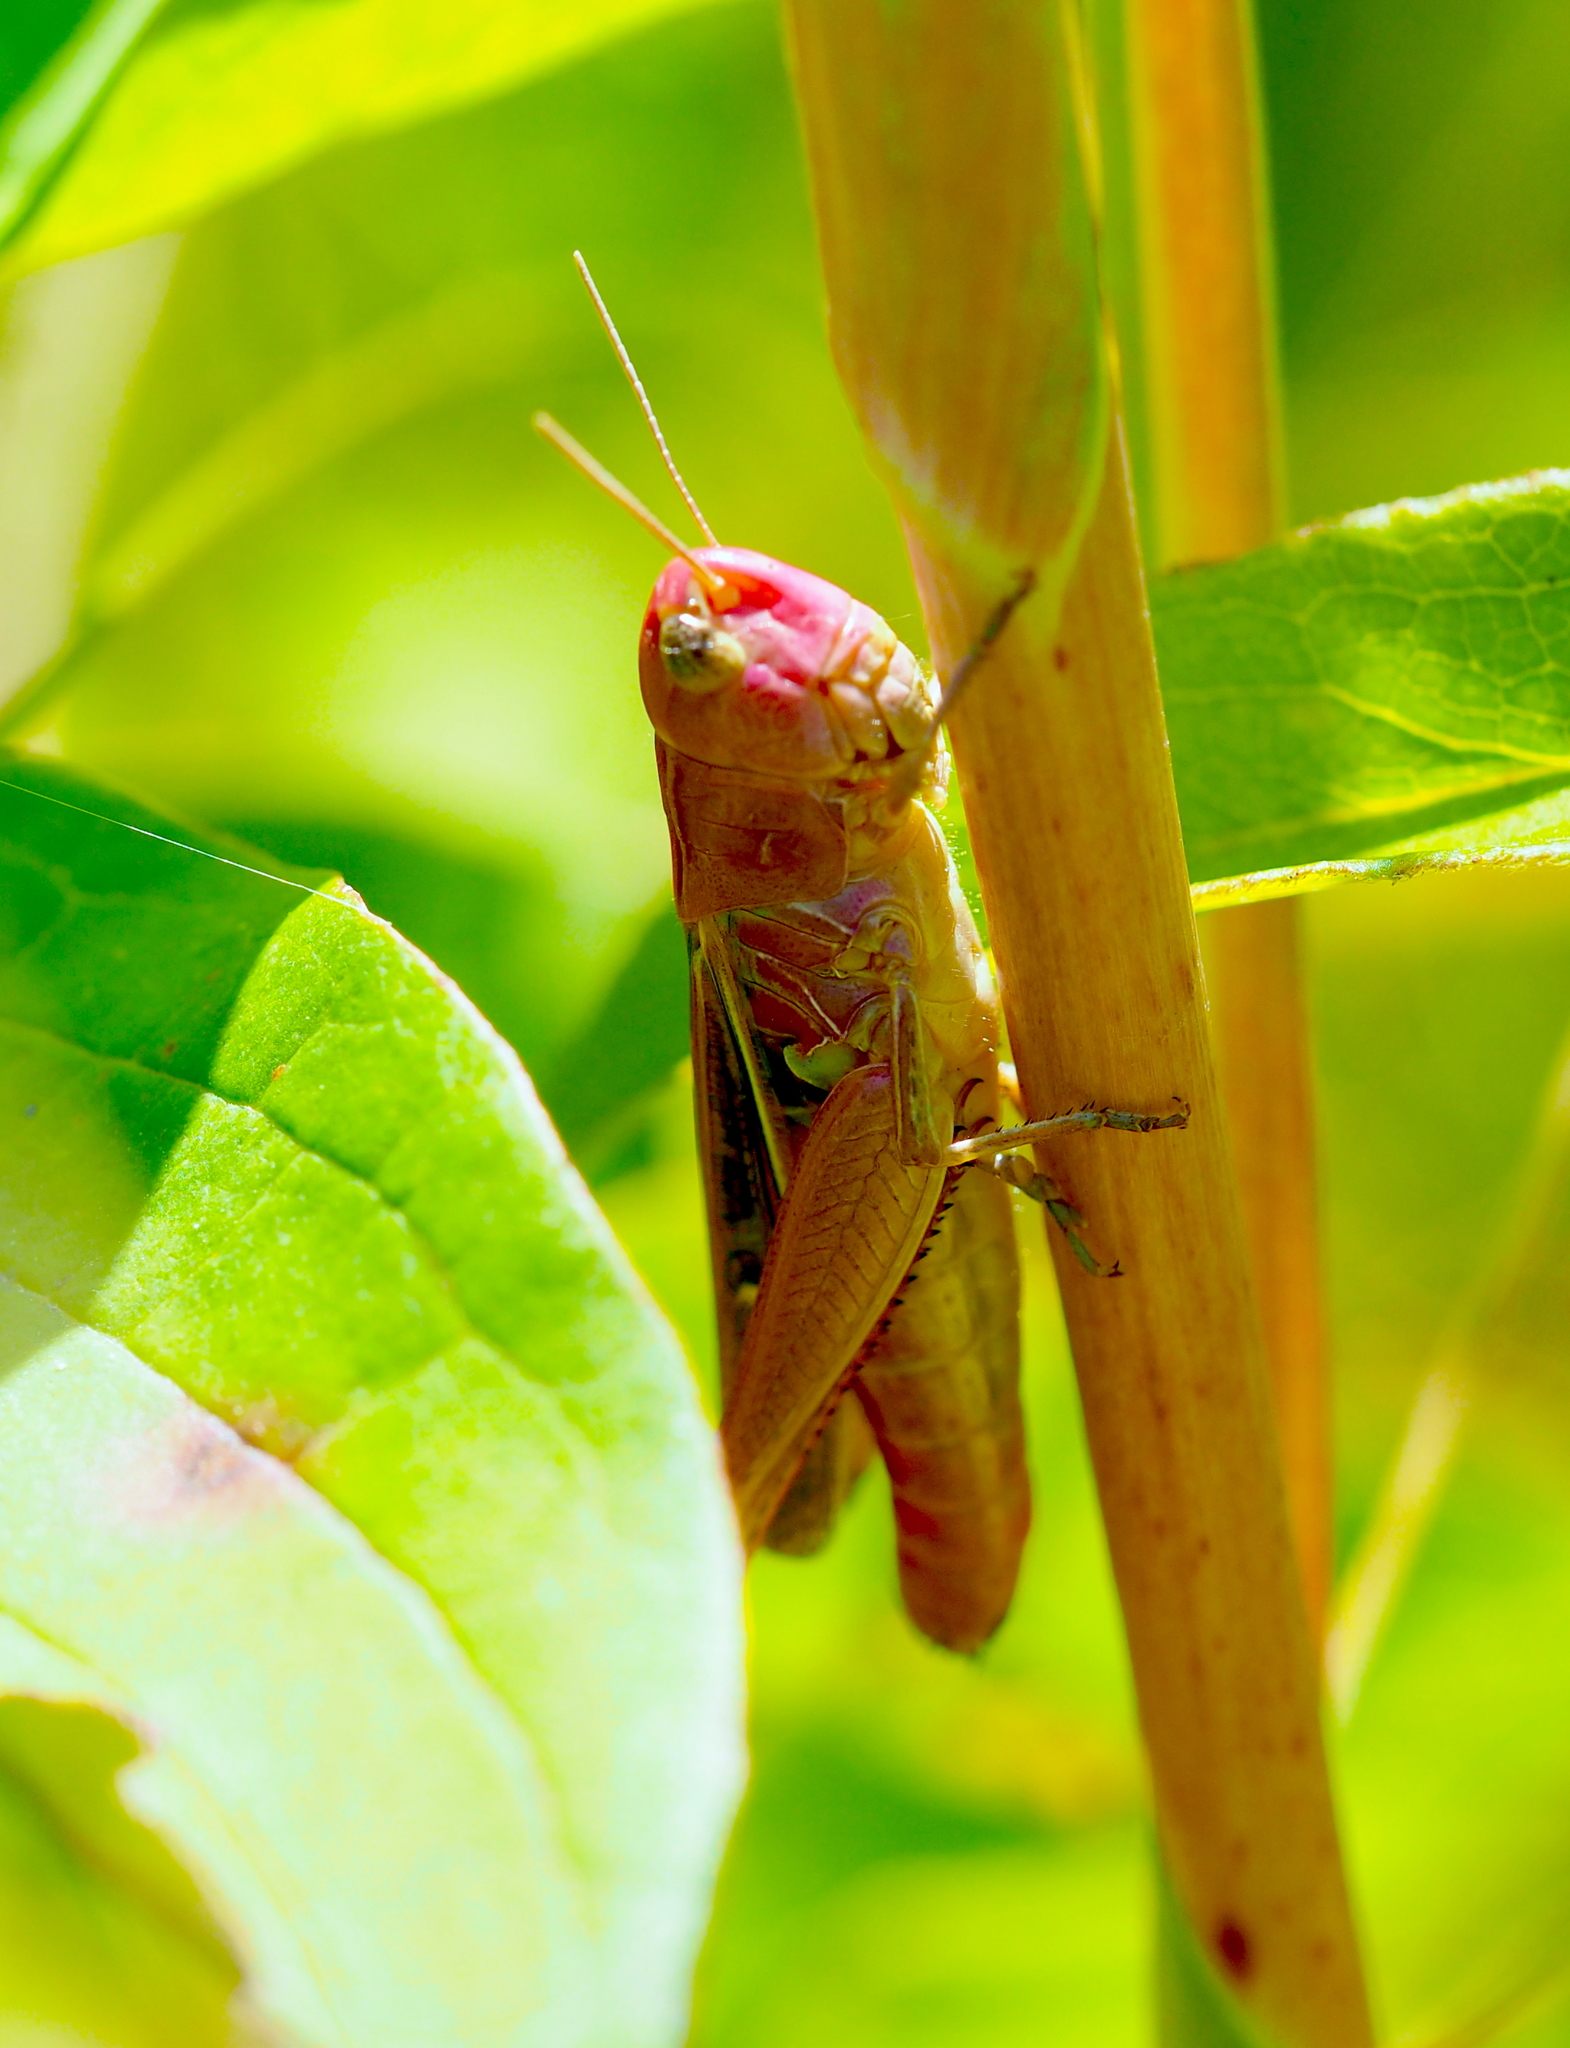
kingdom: Animalia
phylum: Arthropoda
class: Insecta
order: Orthoptera
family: Acrididae
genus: Stenobothrus
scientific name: Stenobothrus lineatus
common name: Stripe-winged grasshopper
